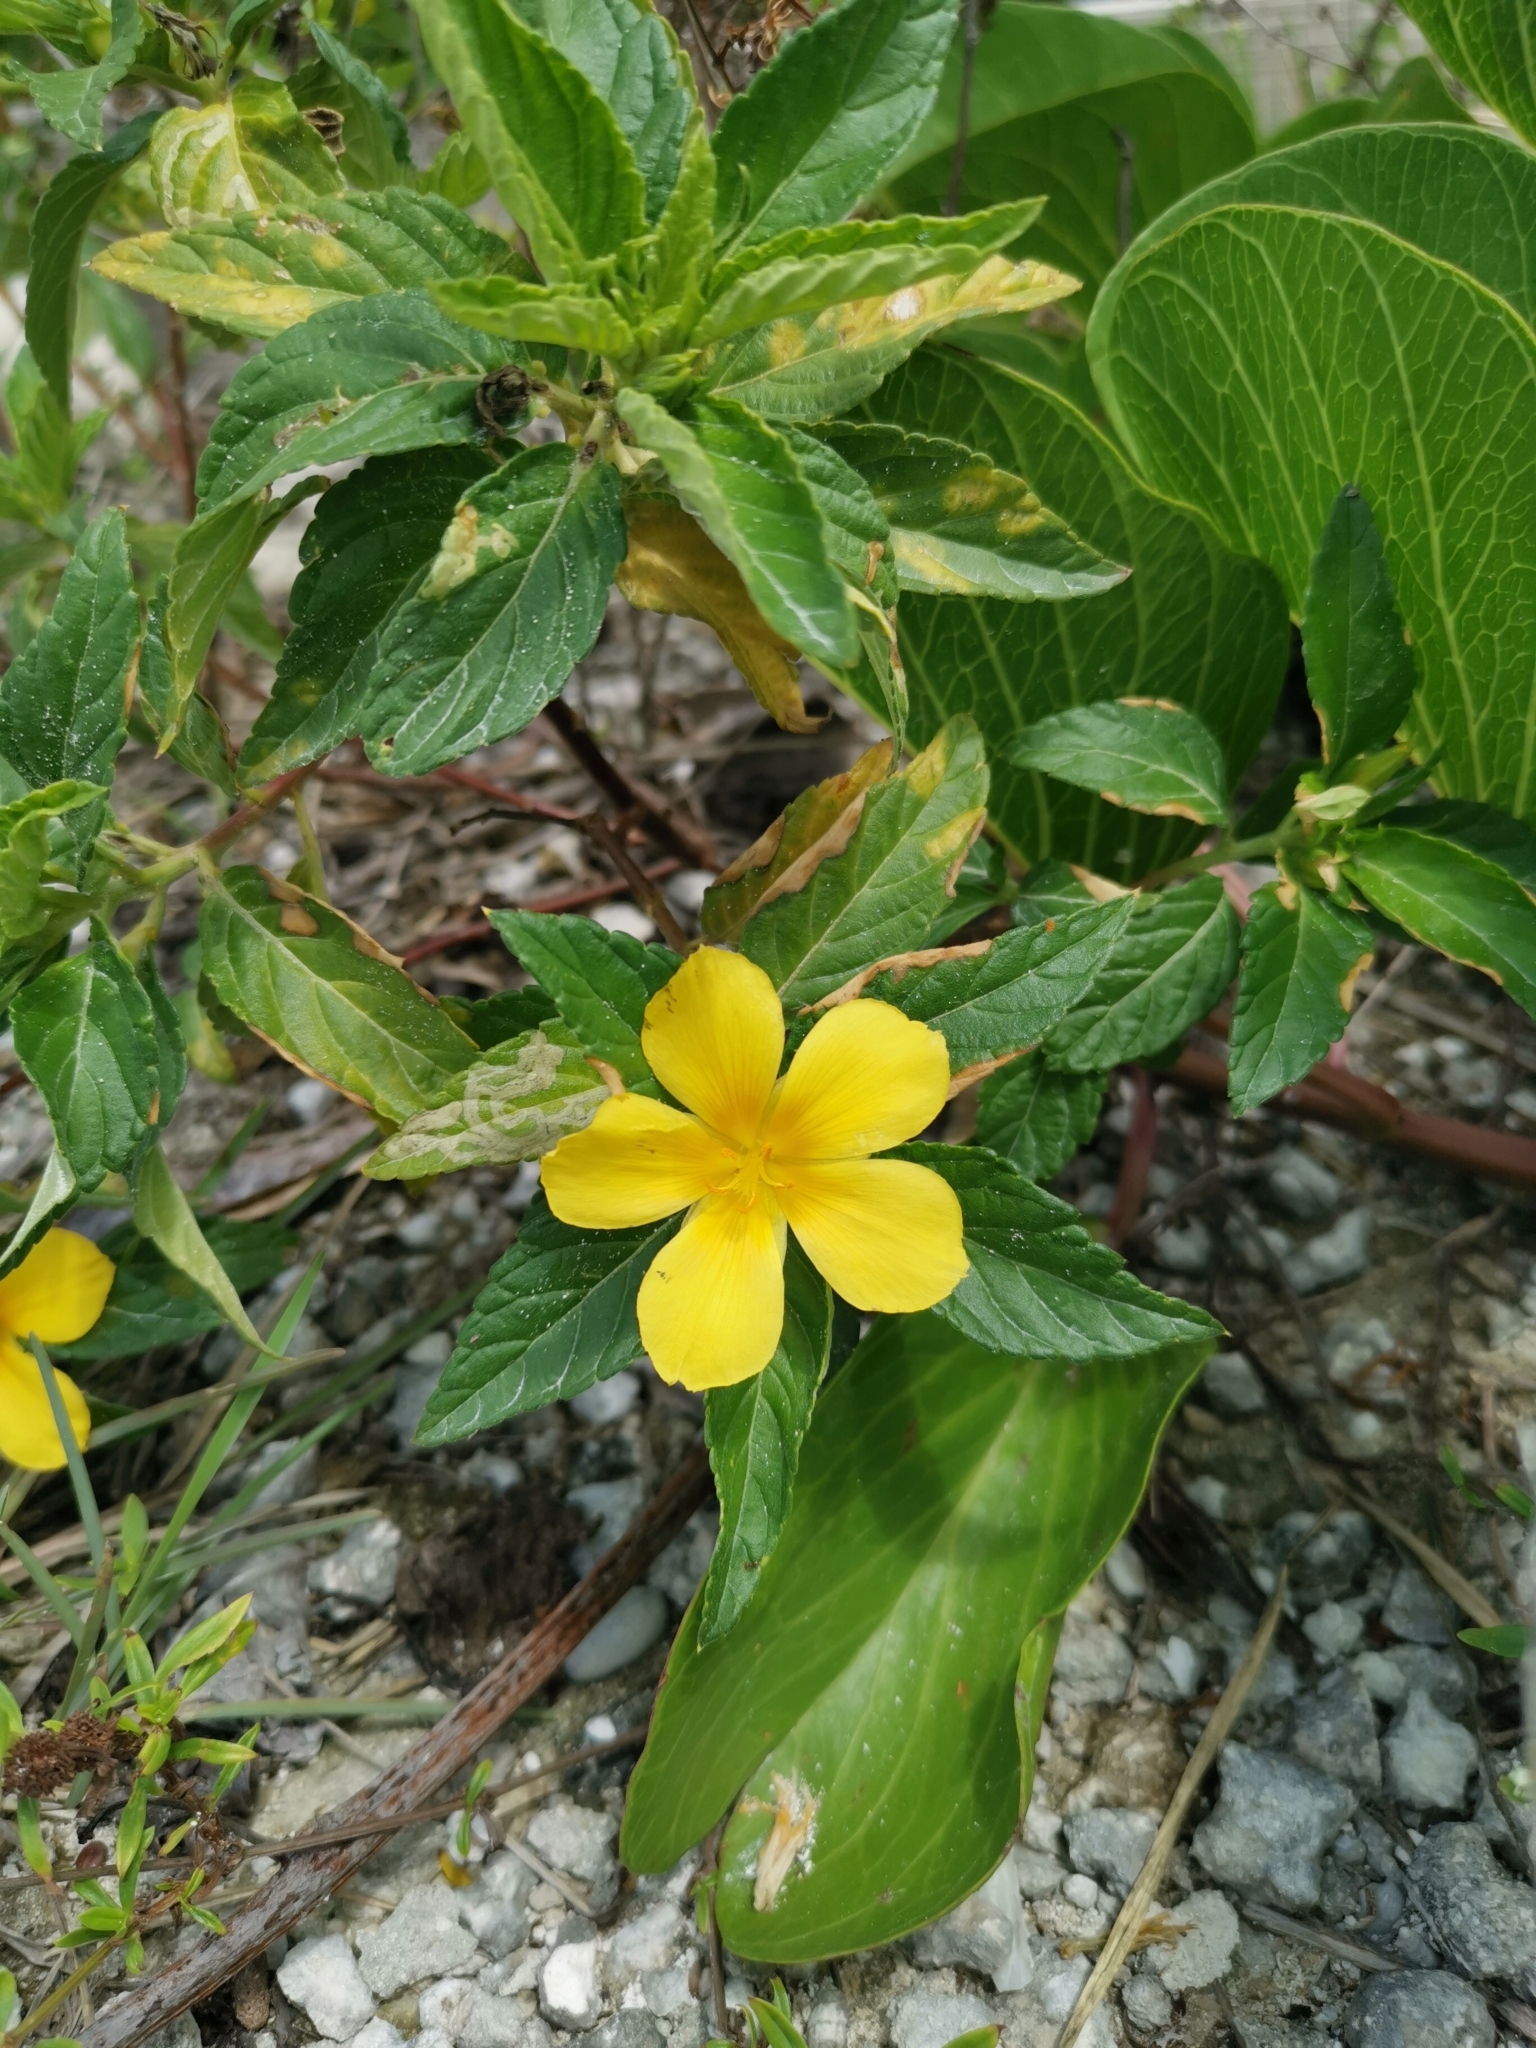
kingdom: Plantae
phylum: Tracheophyta
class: Magnoliopsida
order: Malpighiales
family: Turneraceae
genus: Turnera
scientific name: Turnera ulmifolia
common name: Ramgoat dashalong
